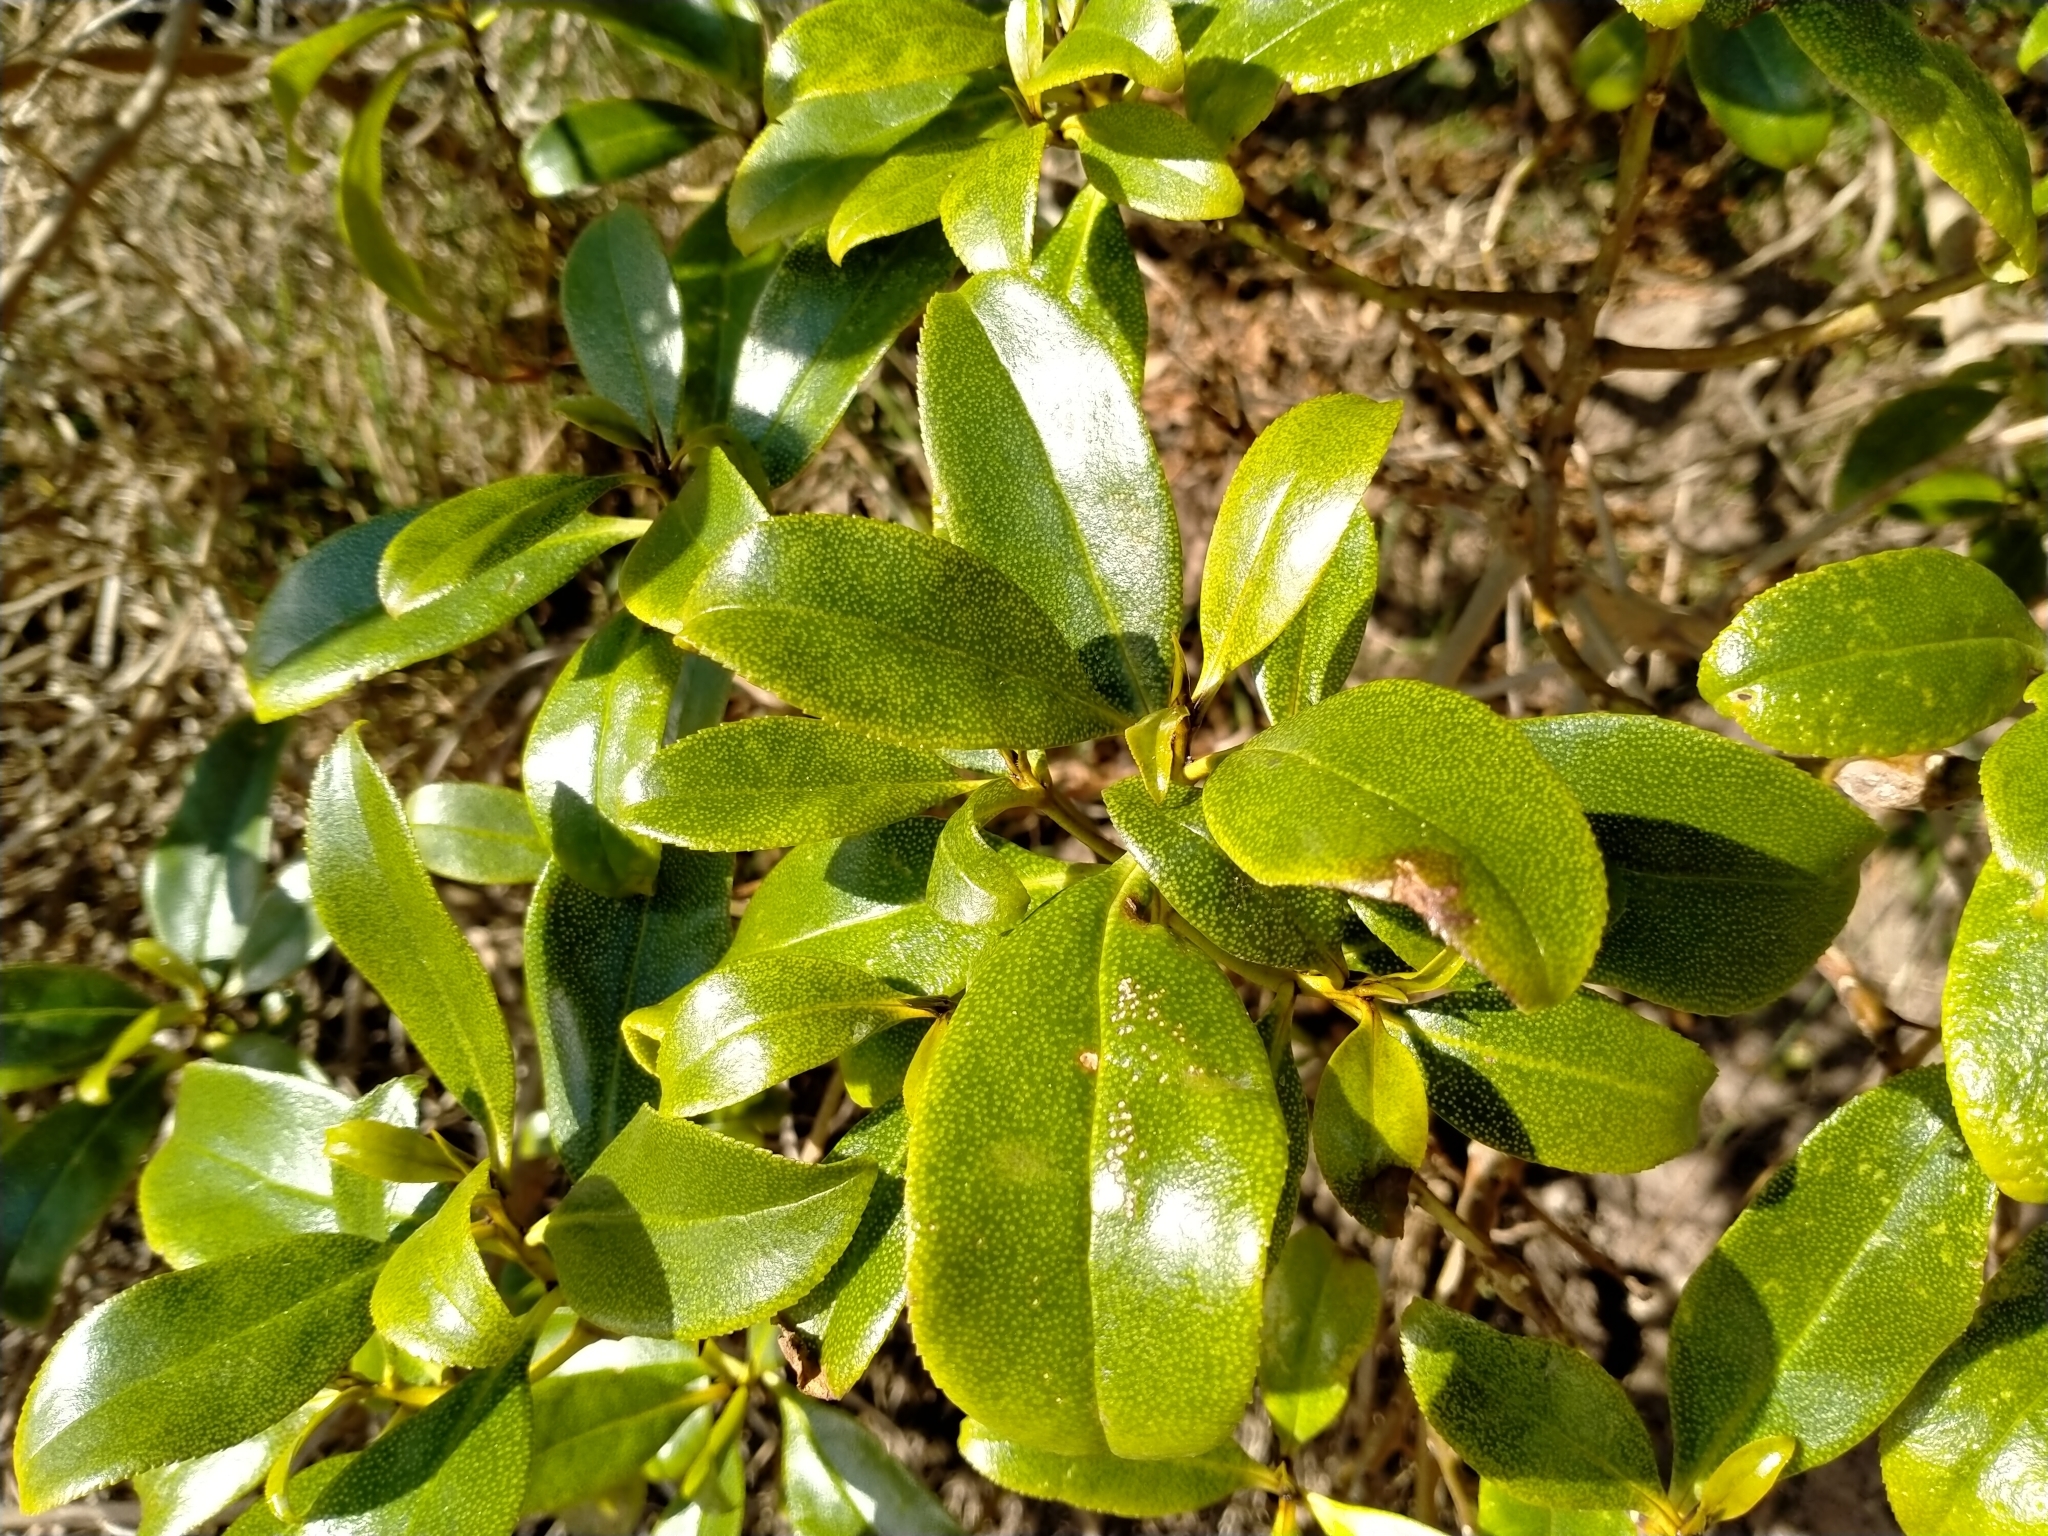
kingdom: Plantae
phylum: Tracheophyta
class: Magnoliopsida
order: Lamiales
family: Scrophulariaceae
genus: Myoporum
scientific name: Myoporum laetum
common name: Ngaio tree
